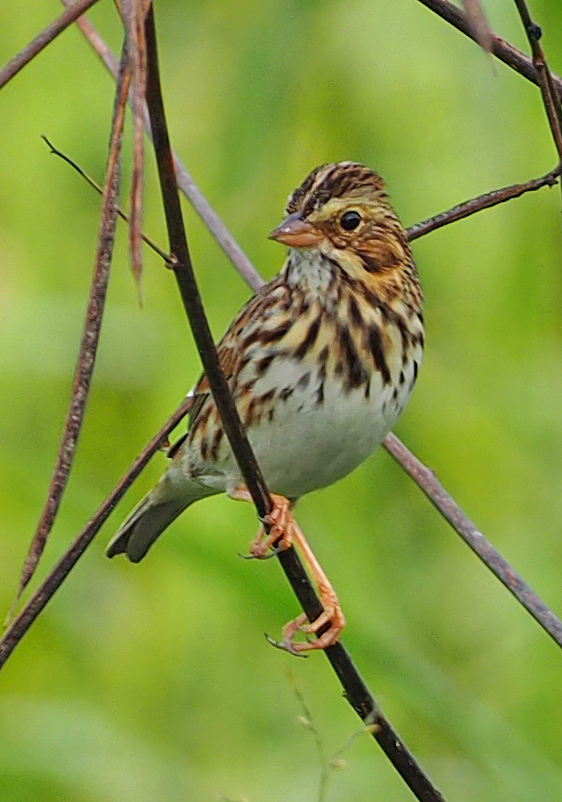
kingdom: Animalia
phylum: Chordata
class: Aves
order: Passeriformes
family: Passerellidae
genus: Passerculus
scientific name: Passerculus sandwichensis
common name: Savannah sparrow
